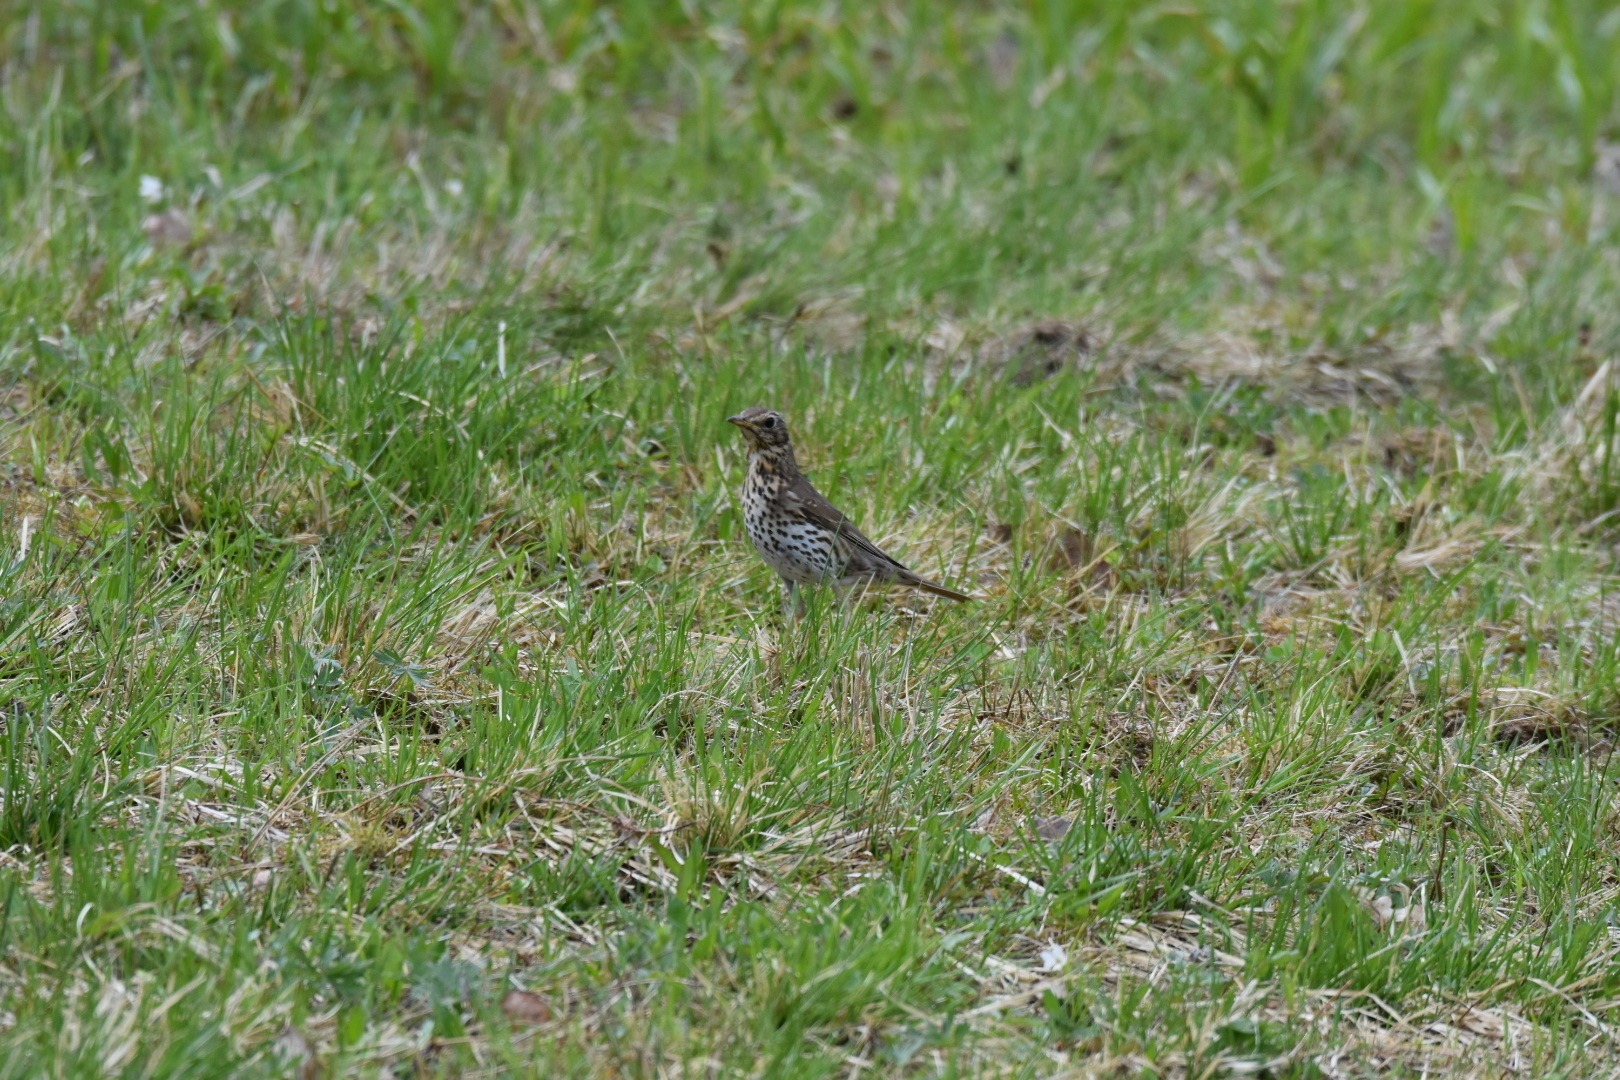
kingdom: Animalia
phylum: Chordata
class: Aves
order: Passeriformes
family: Turdidae
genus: Turdus
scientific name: Turdus philomelos
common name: Song thrush
